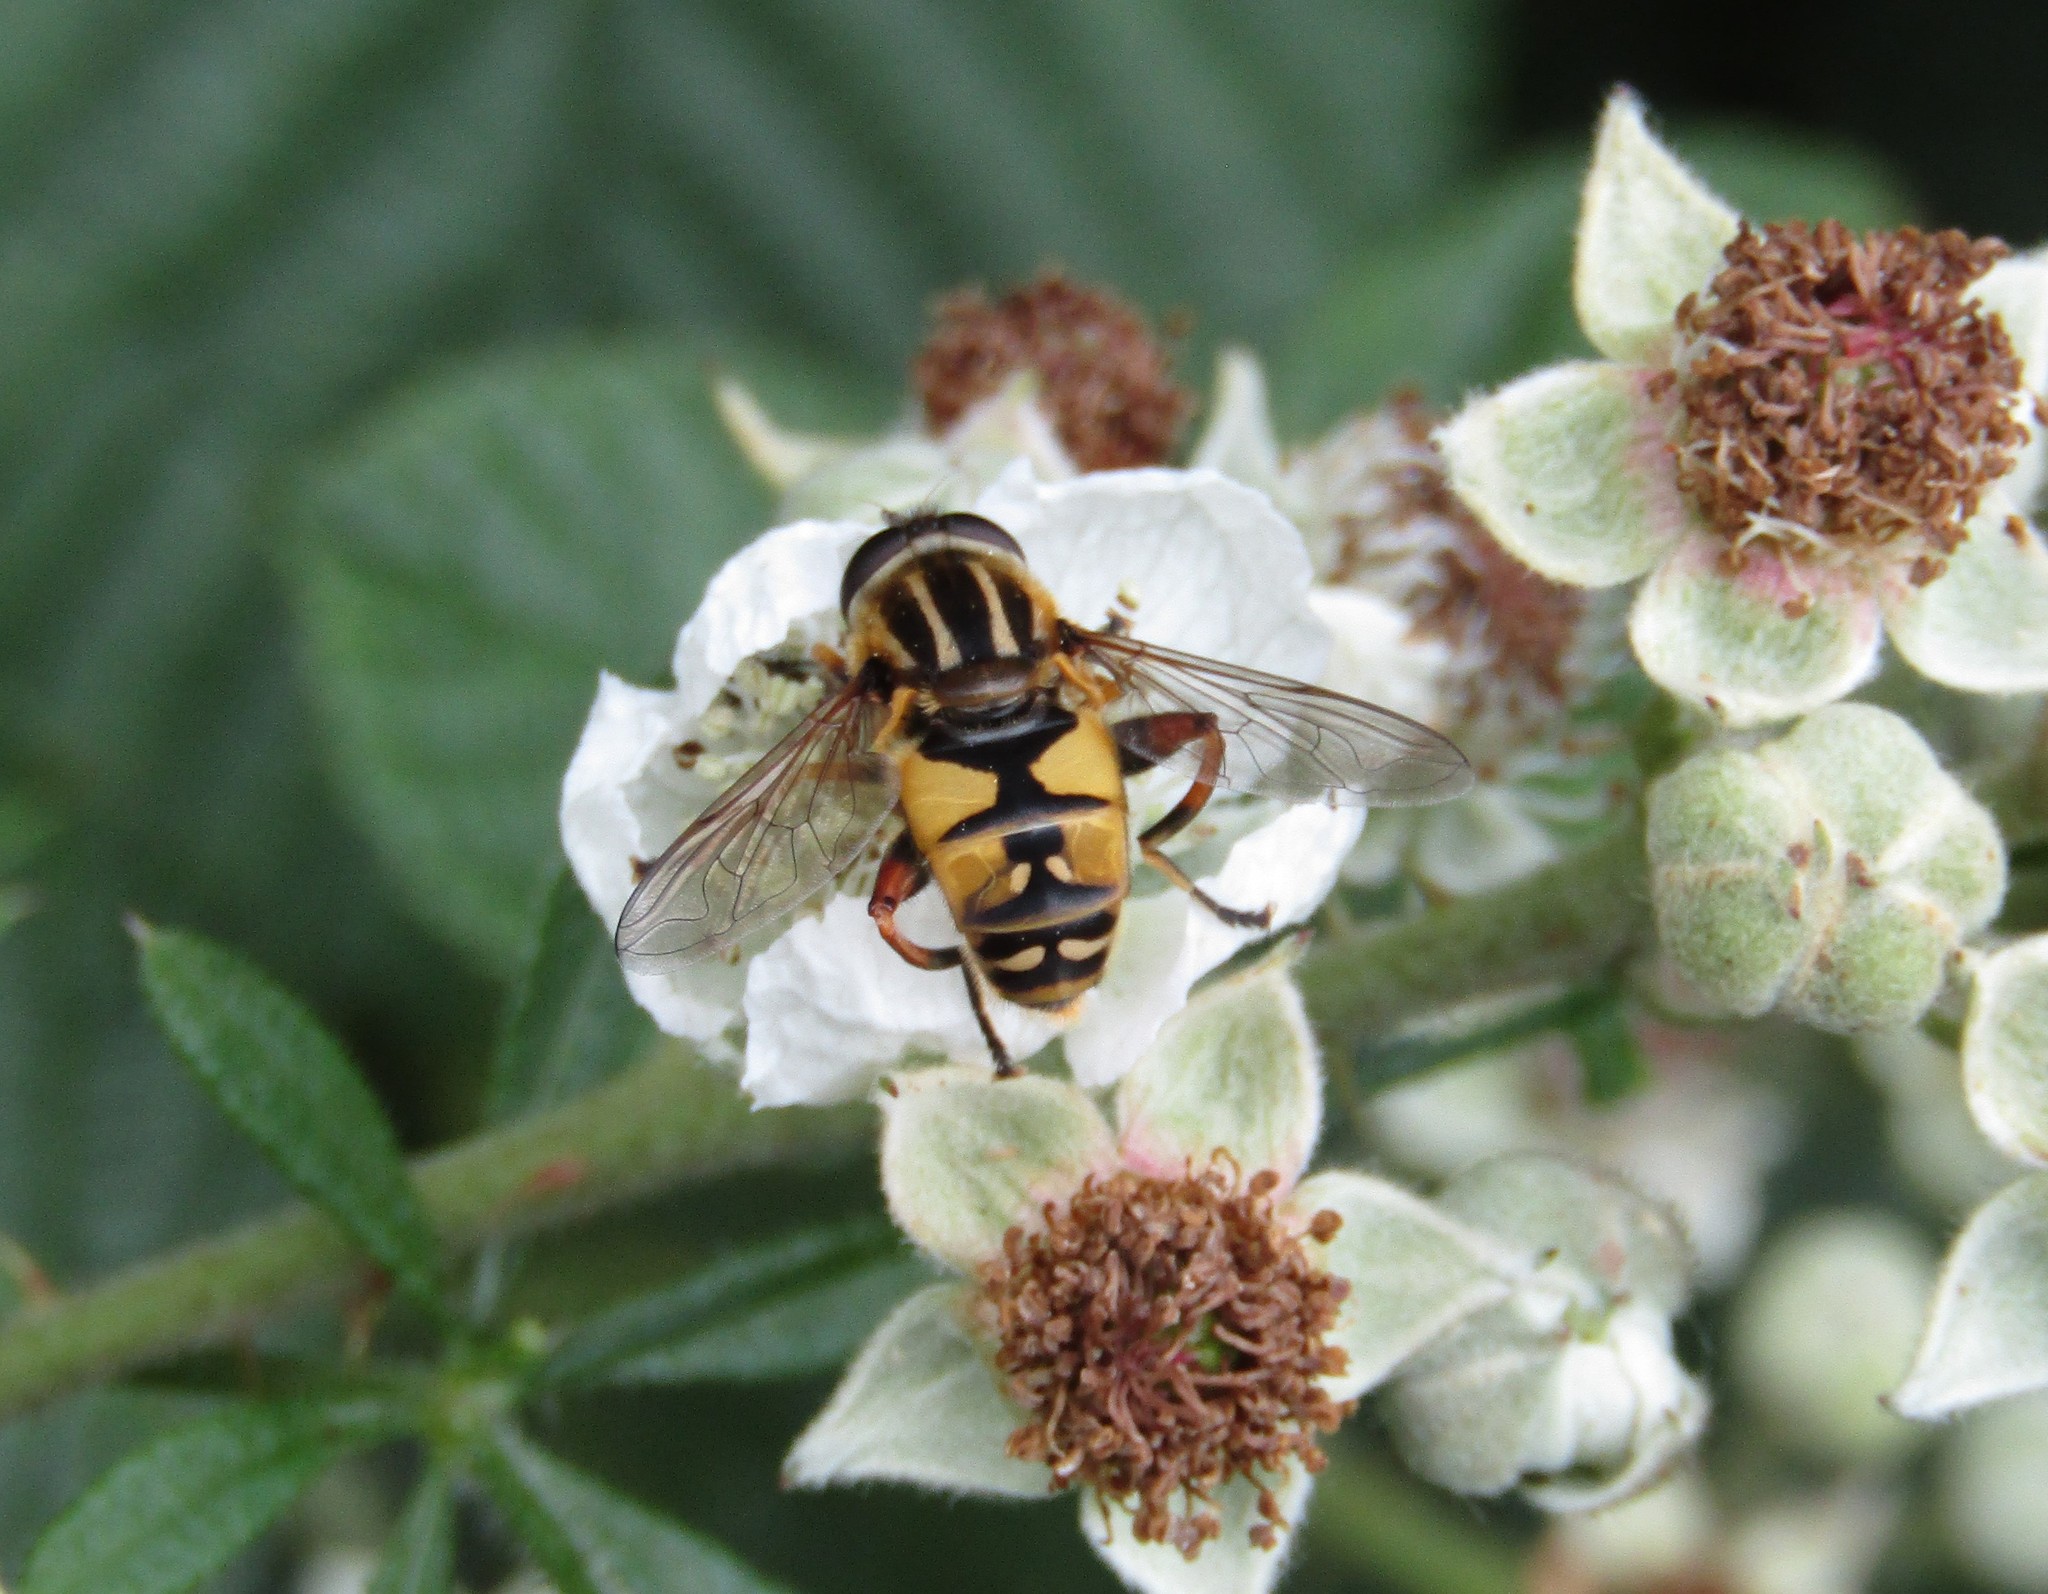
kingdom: Animalia
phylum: Arthropoda
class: Insecta
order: Diptera
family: Syrphidae
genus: Helophilus
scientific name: Helophilus pendulus
